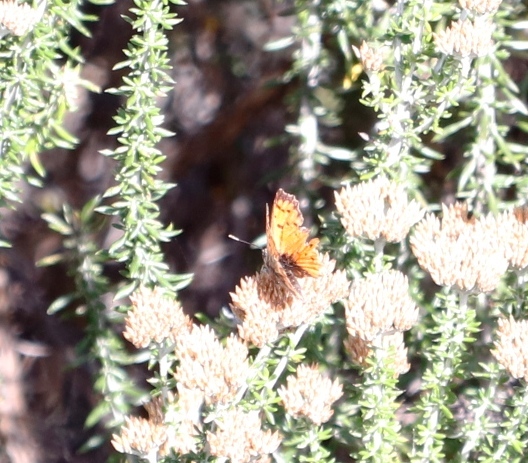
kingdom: Animalia
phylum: Arthropoda
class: Insecta
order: Lepidoptera
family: Lycaenidae
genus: Chrysoritis
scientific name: Chrysoritis
